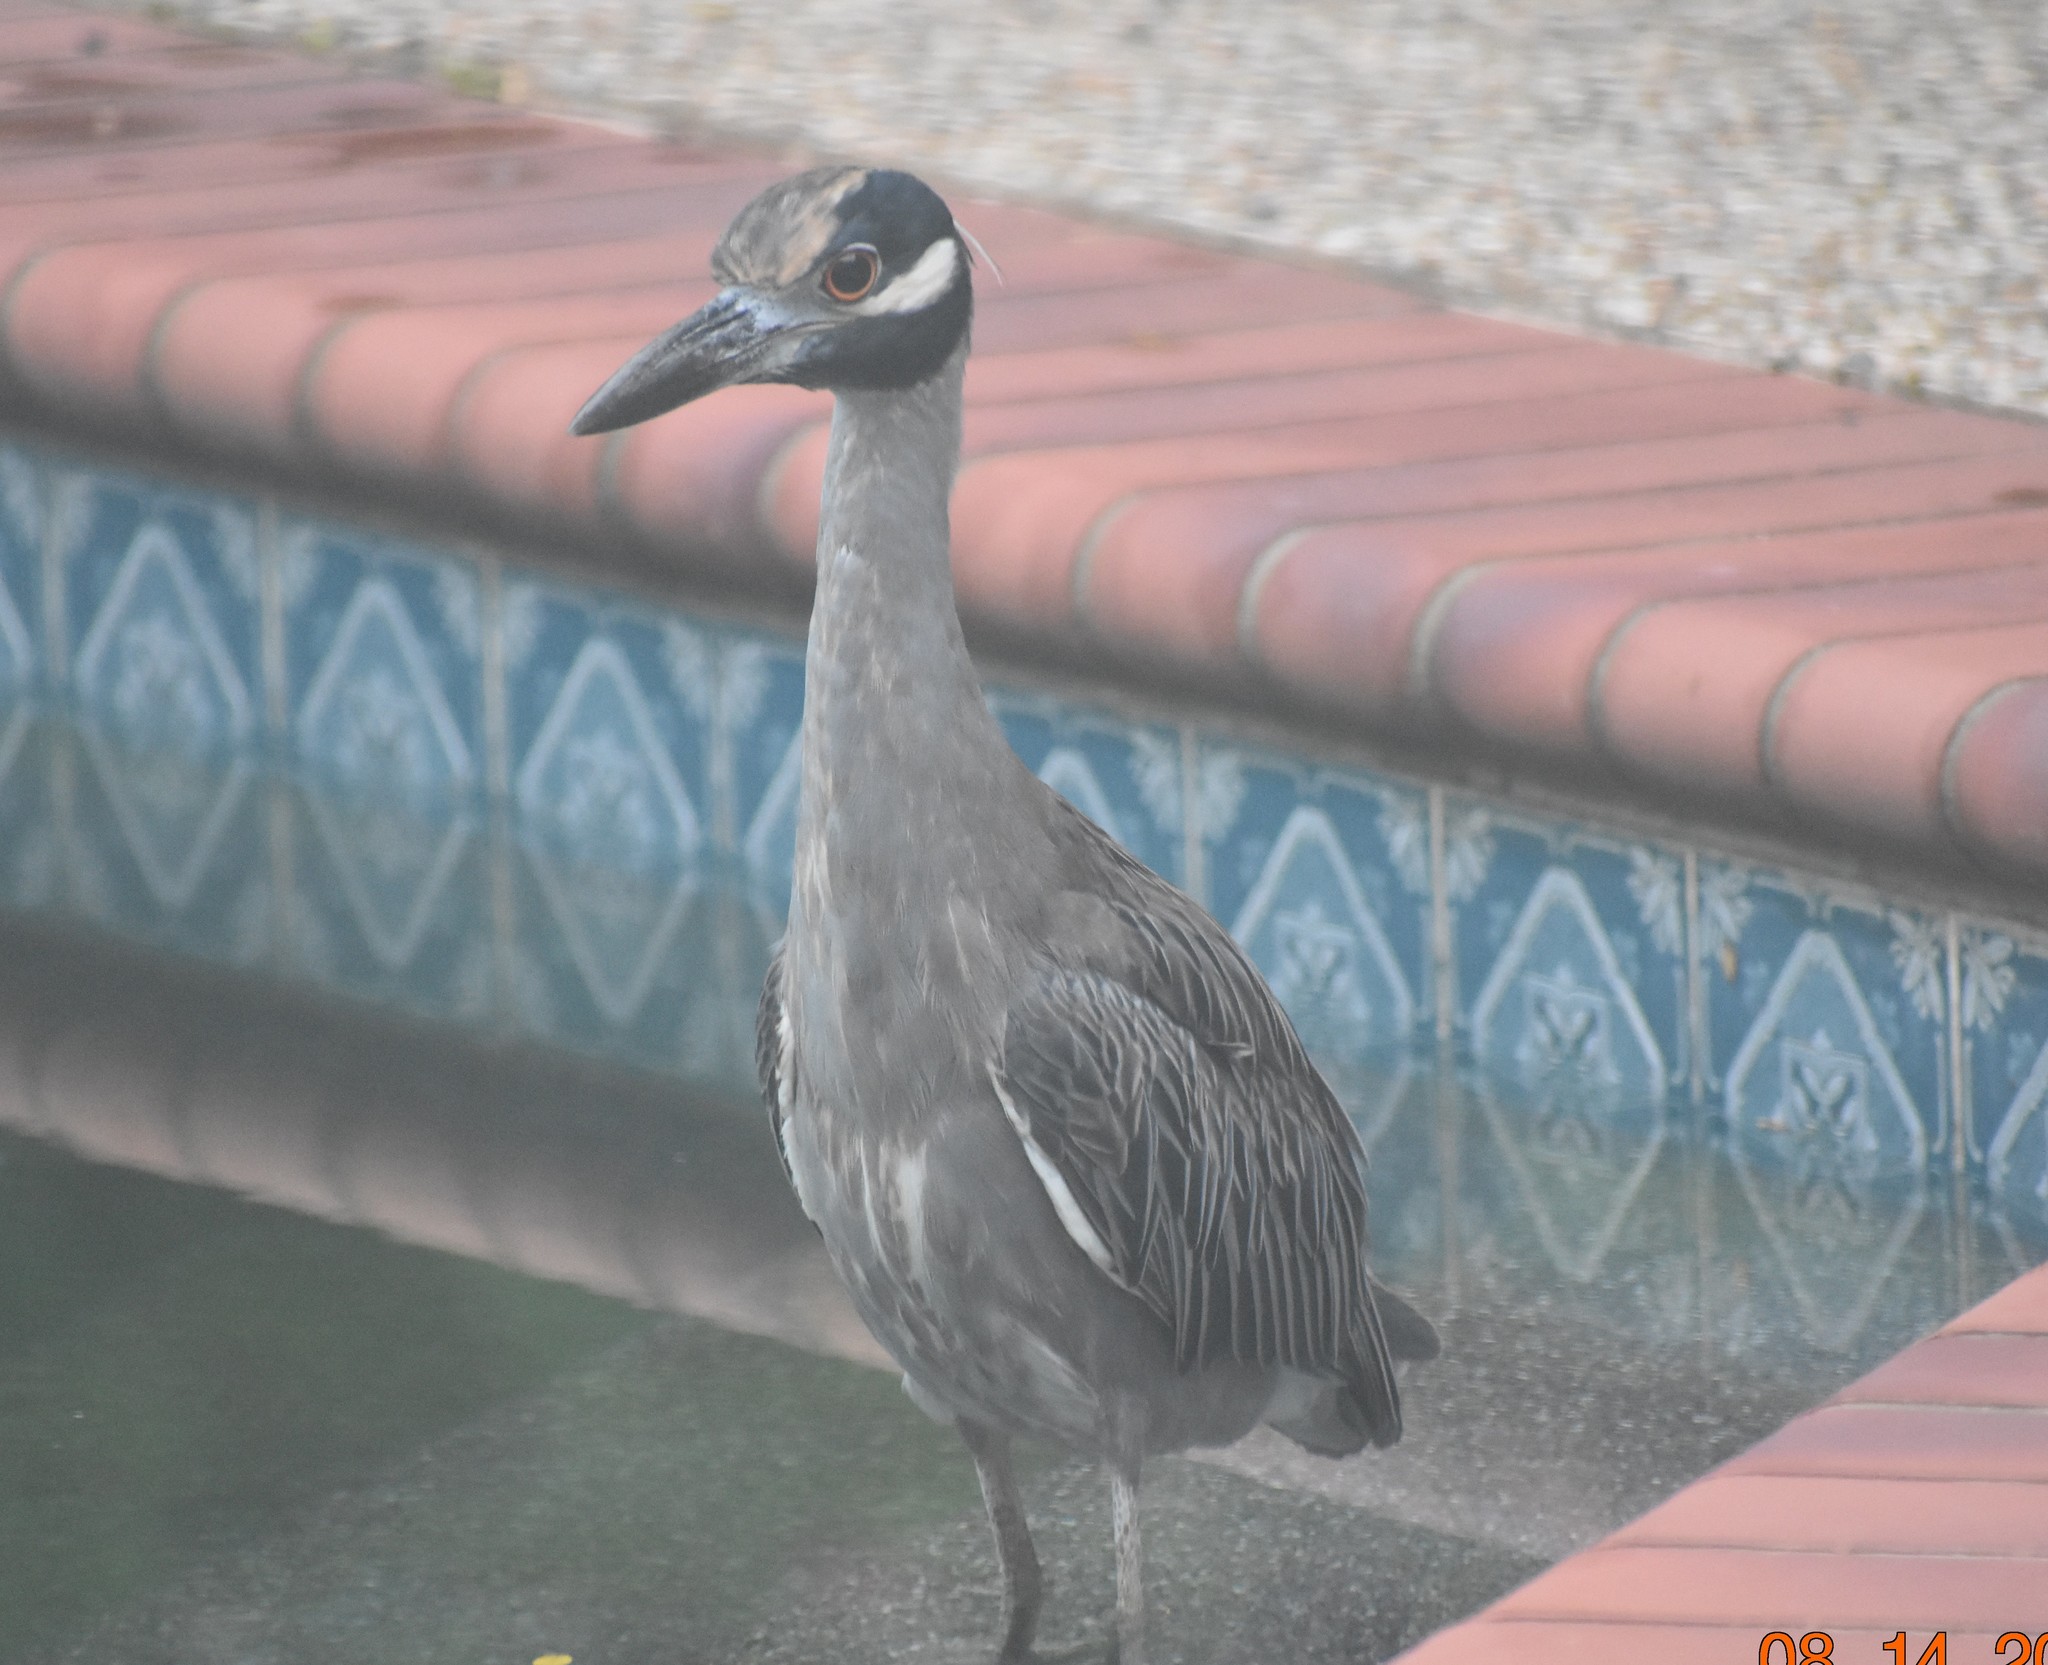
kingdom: Animalia
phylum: Chordata
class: Aves
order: Pelecaniformes
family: Ardeidae
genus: Nyctanassa
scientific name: Nyctanassa violacea
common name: Yellow-crowned night heron
